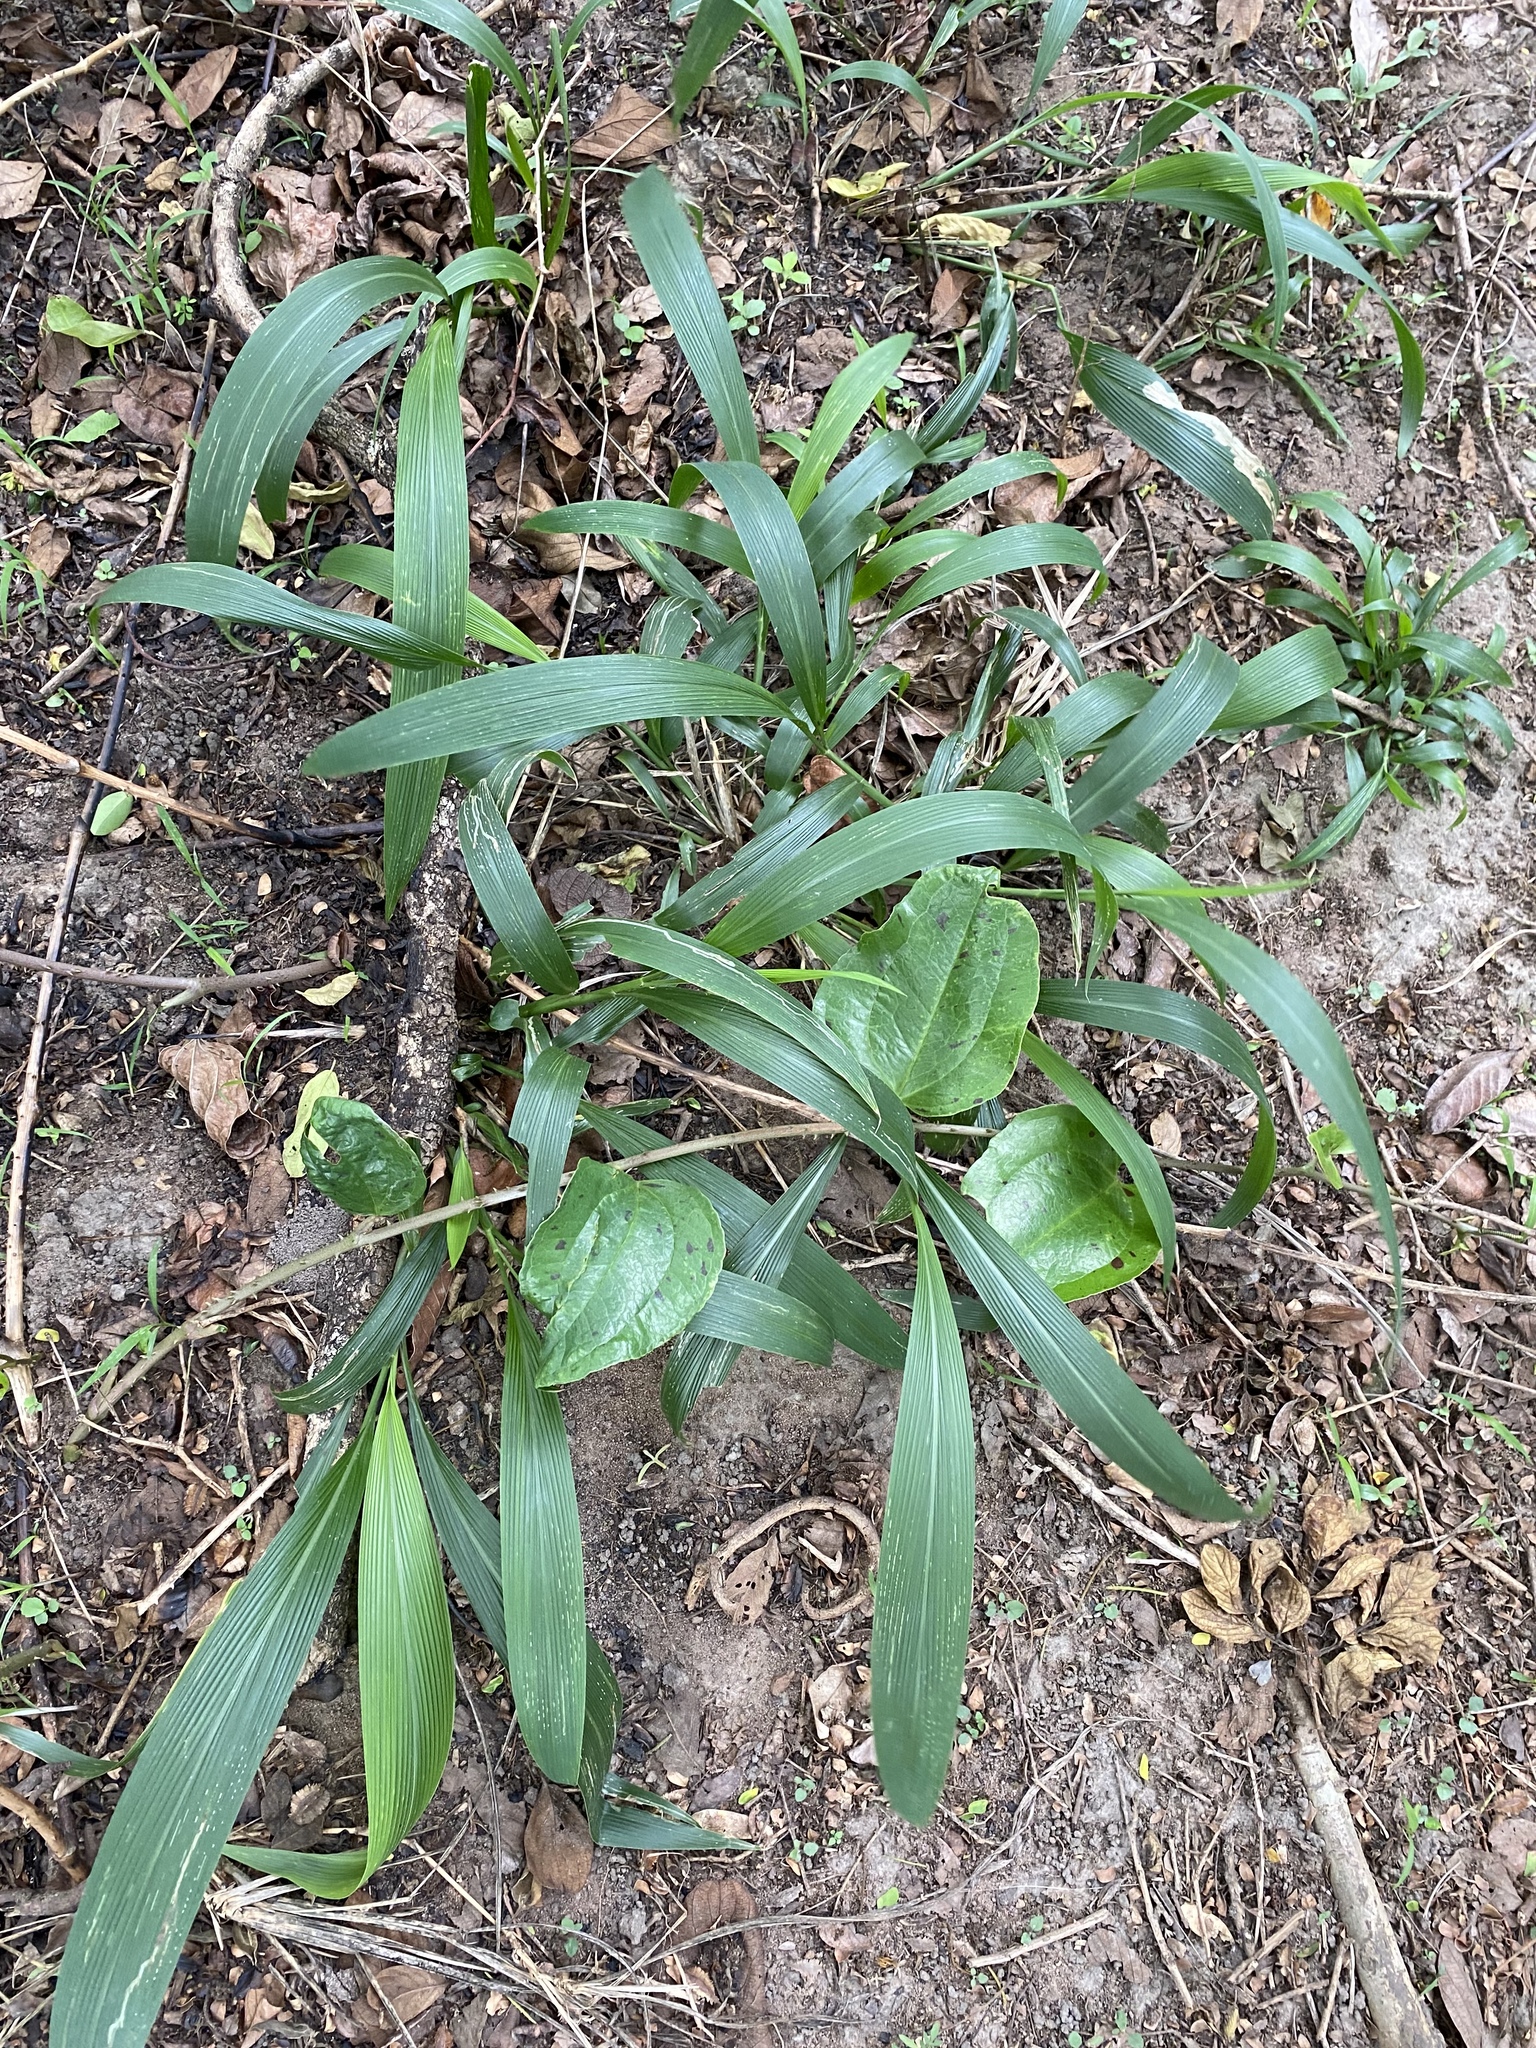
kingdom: Plantae
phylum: Tracheophyta
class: Liliopsida
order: Poales
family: Poaceae
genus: Setaria
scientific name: Setaria megaphylla
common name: Bigleaf bristlegrass
